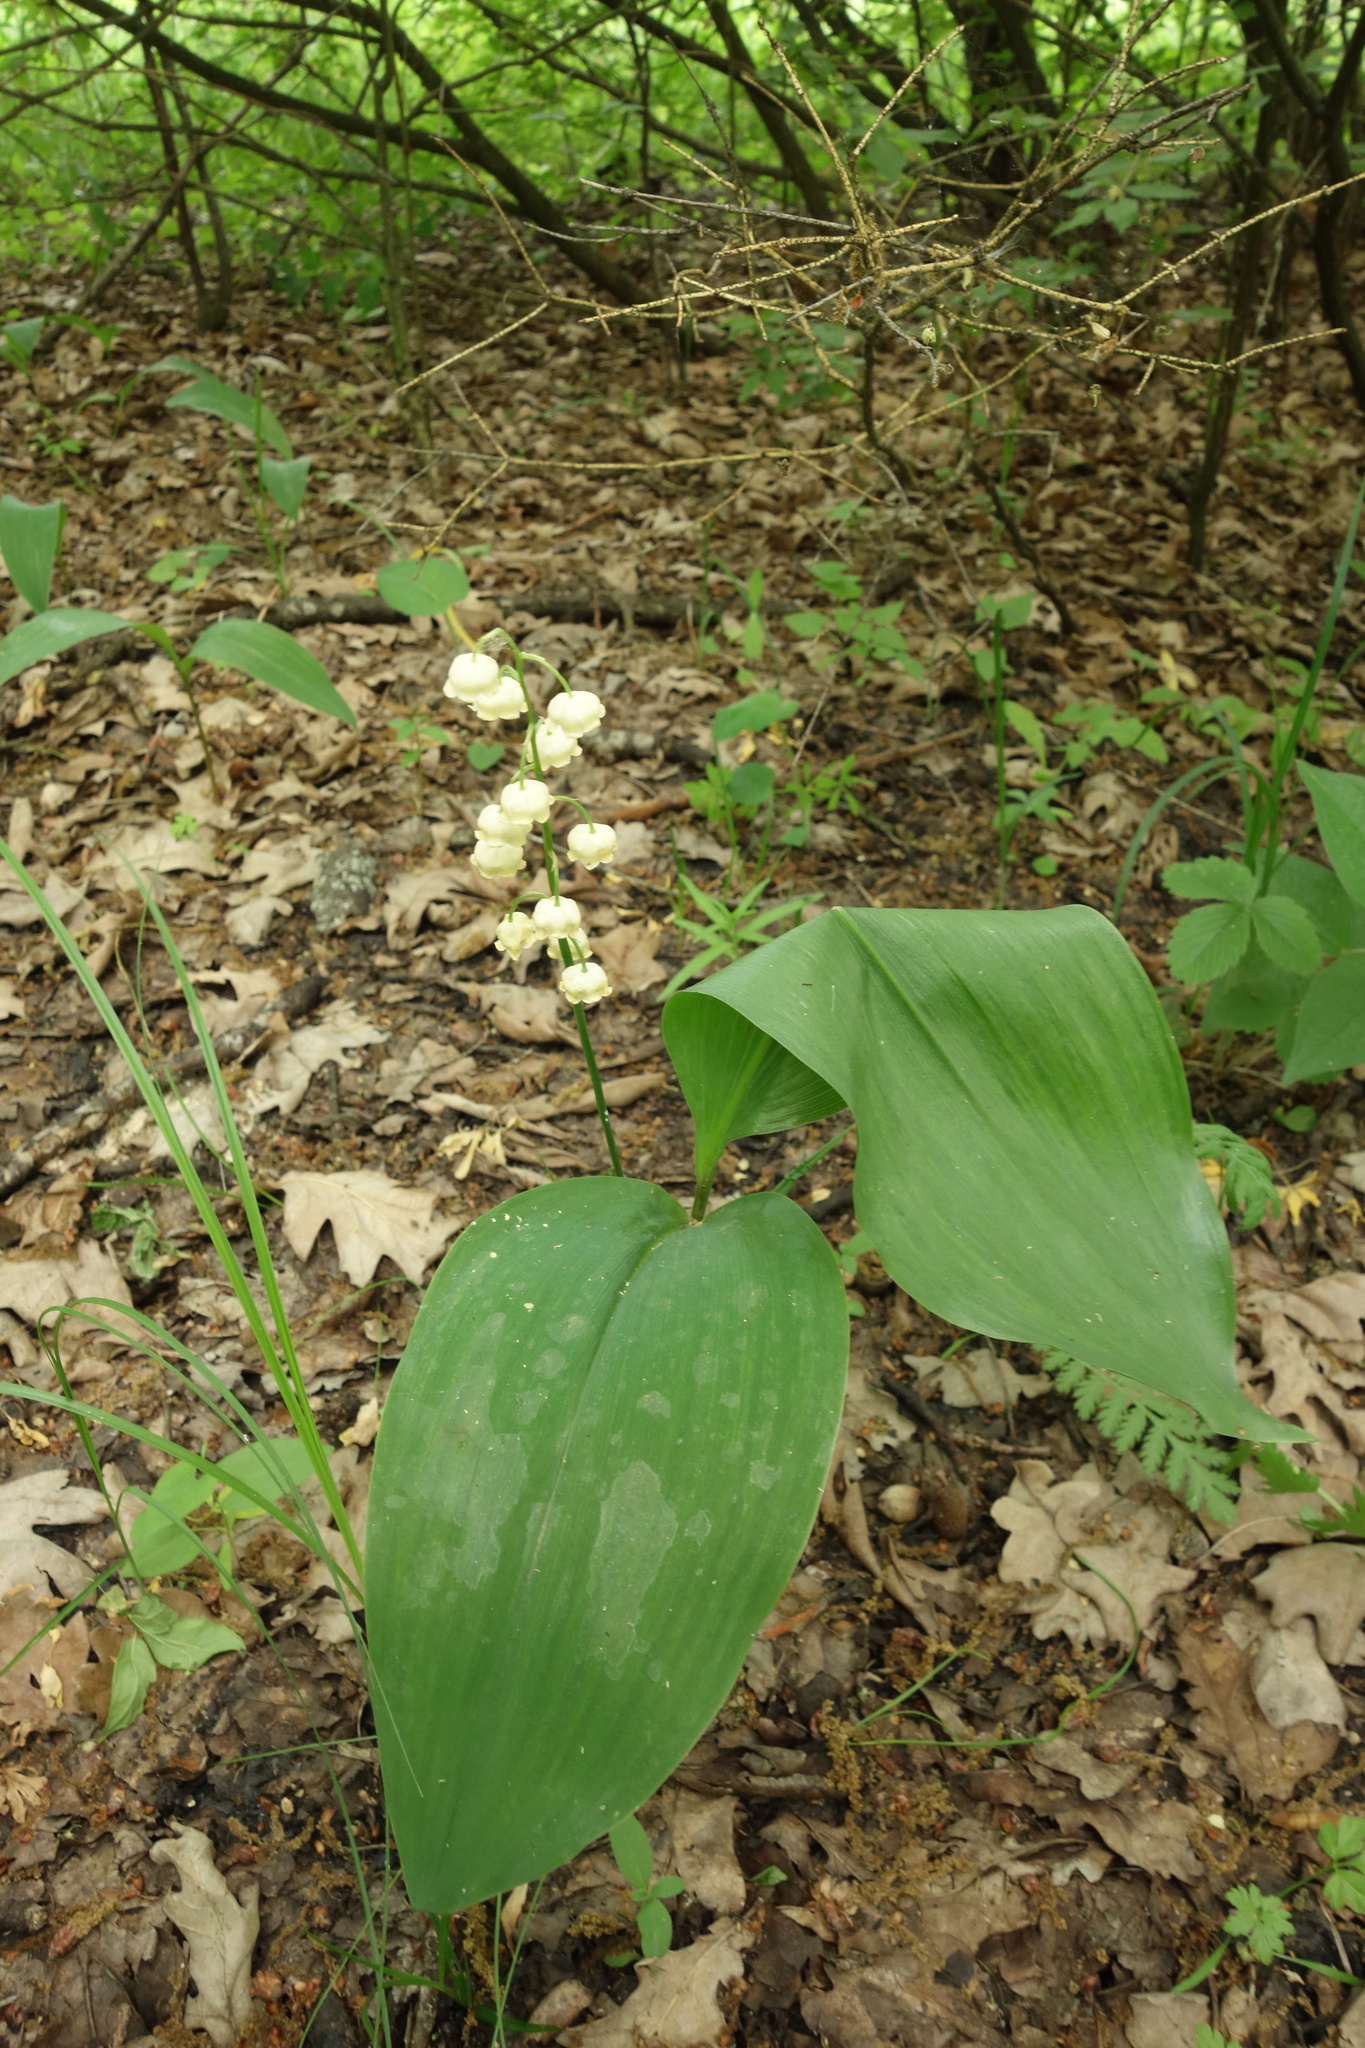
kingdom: Plantae
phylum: Tracheophyta
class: Liliopsida
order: Asparagales
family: Asparagaceae
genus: Convallaria
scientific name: Convallaria majalis
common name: Lily-of-the-valley
